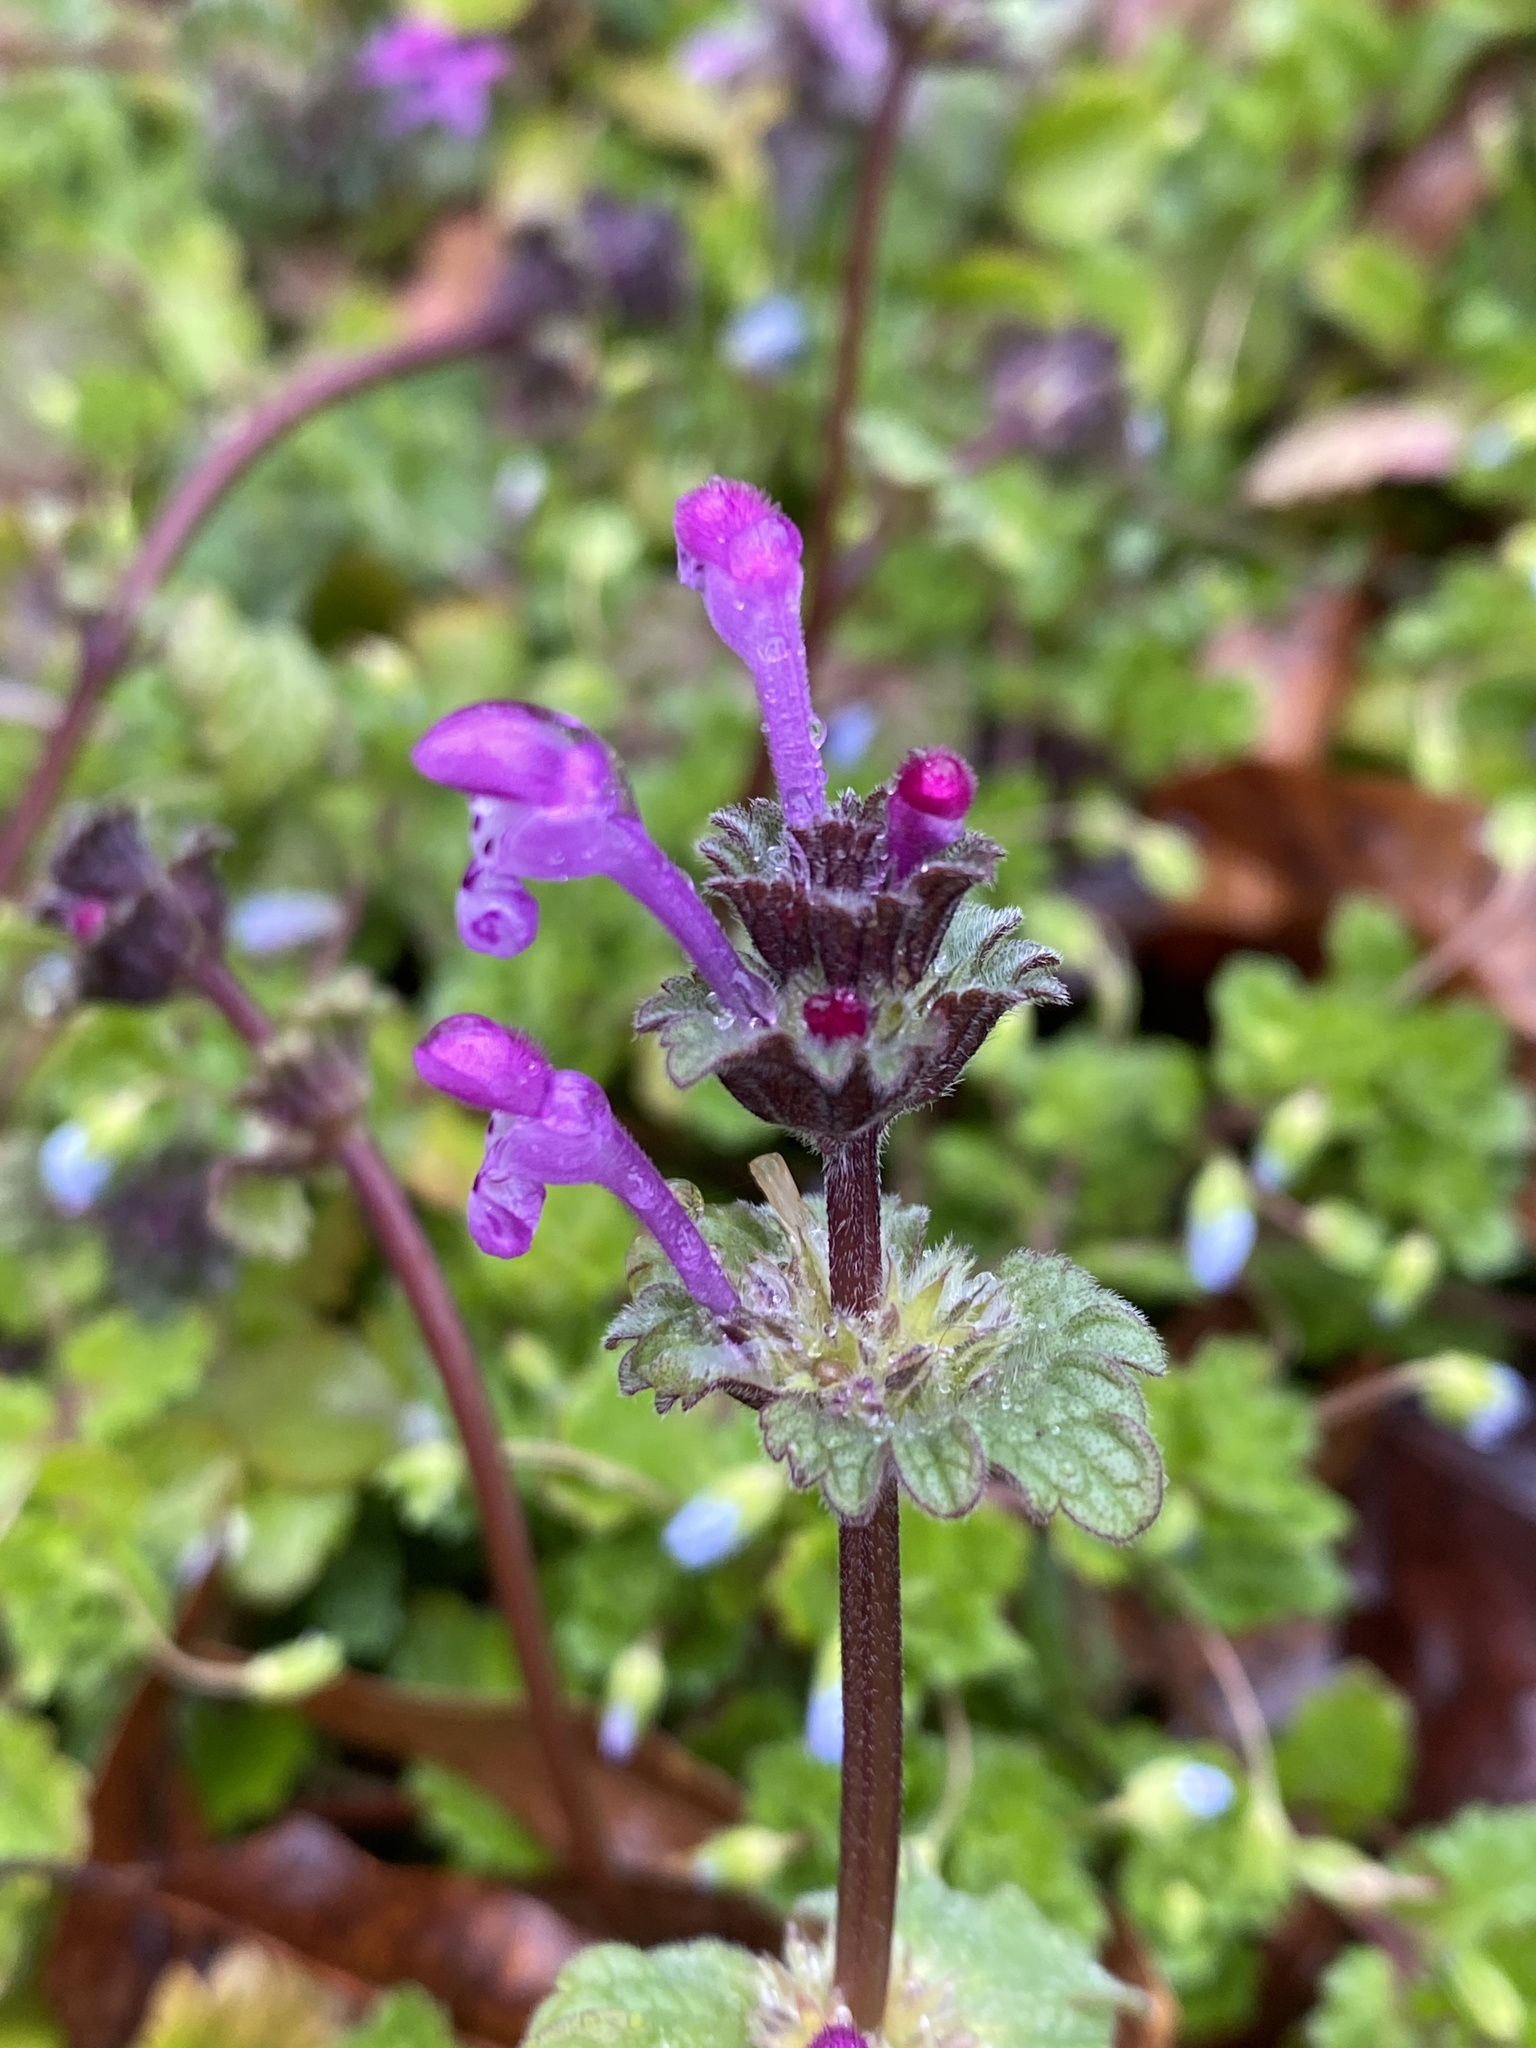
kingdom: Plantae
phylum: Tracheophyta
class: Magnoliopsida
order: Lamiales
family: Lamiaceae
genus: Lamium
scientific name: Lamium amplexicaule
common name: Henbit dead-nettle
